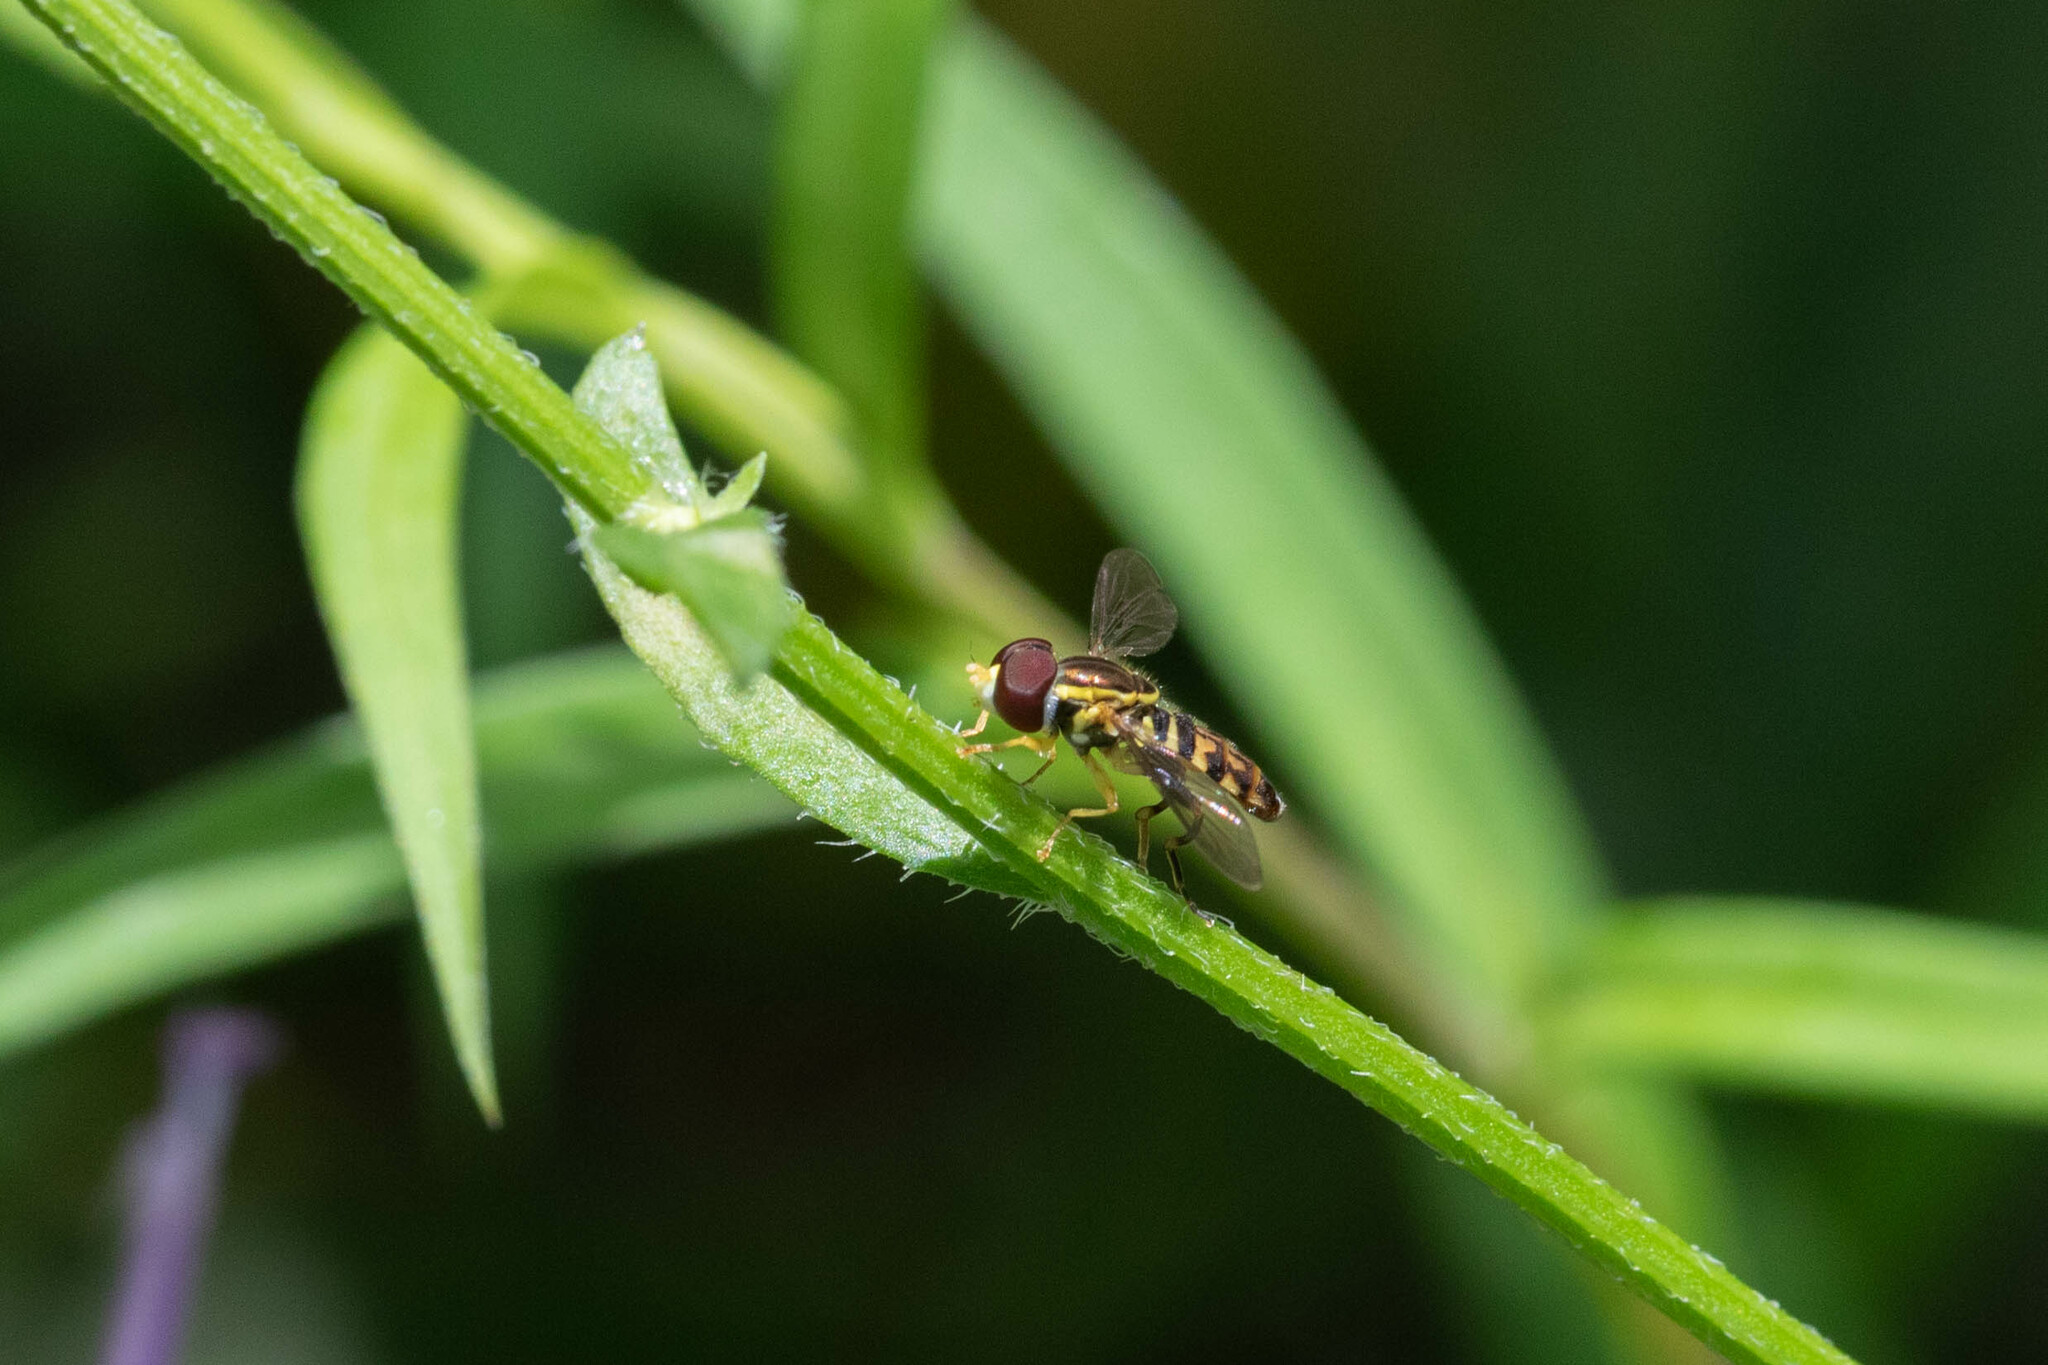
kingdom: Animalia
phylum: Arthropoda
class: Insecta
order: Diptera
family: Syrphidae
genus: Toxomerus
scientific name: Toxomerus geminatus
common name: Eastern calligrapher
